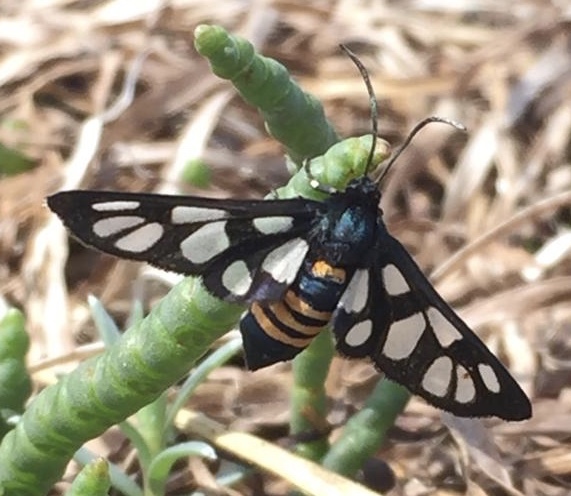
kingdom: Animalia
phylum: Arthropoda
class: Insecta
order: Lepidoptera
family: Erebidae
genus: Amata
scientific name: Amata johanna
